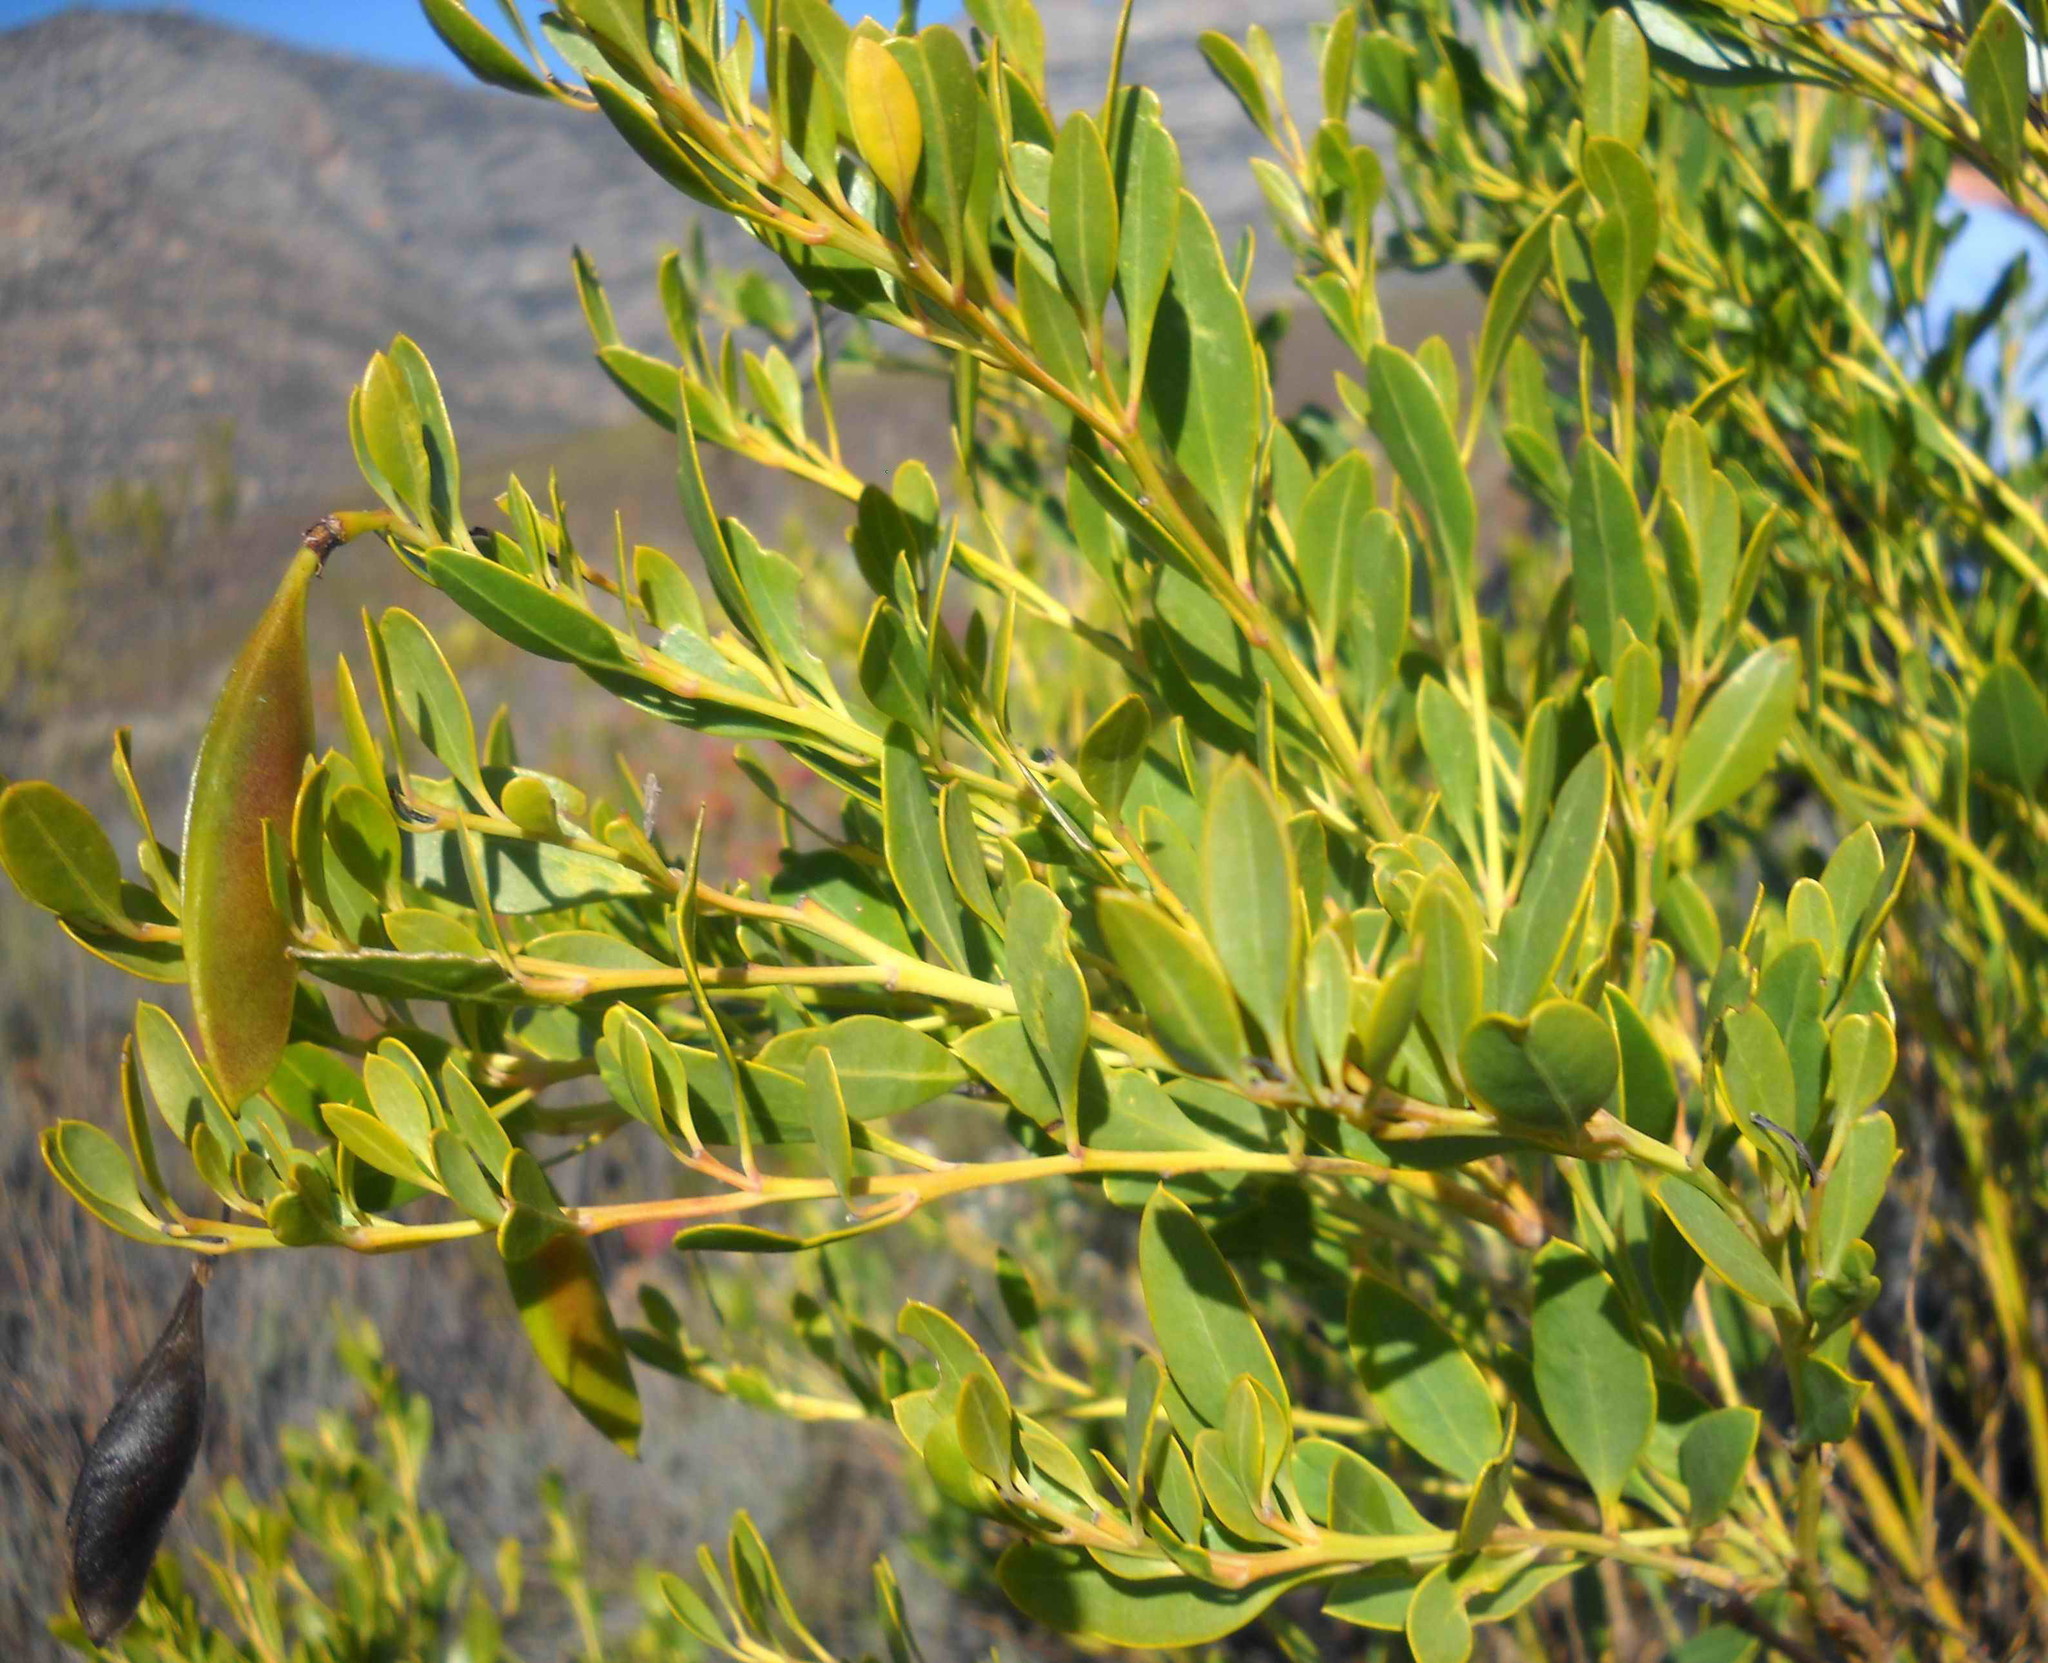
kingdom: Plantae
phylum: Tracheophyta
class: Magnoliopsida
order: Fabales
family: Fabaceae
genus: Rafnia
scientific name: Rafnia vlokii
